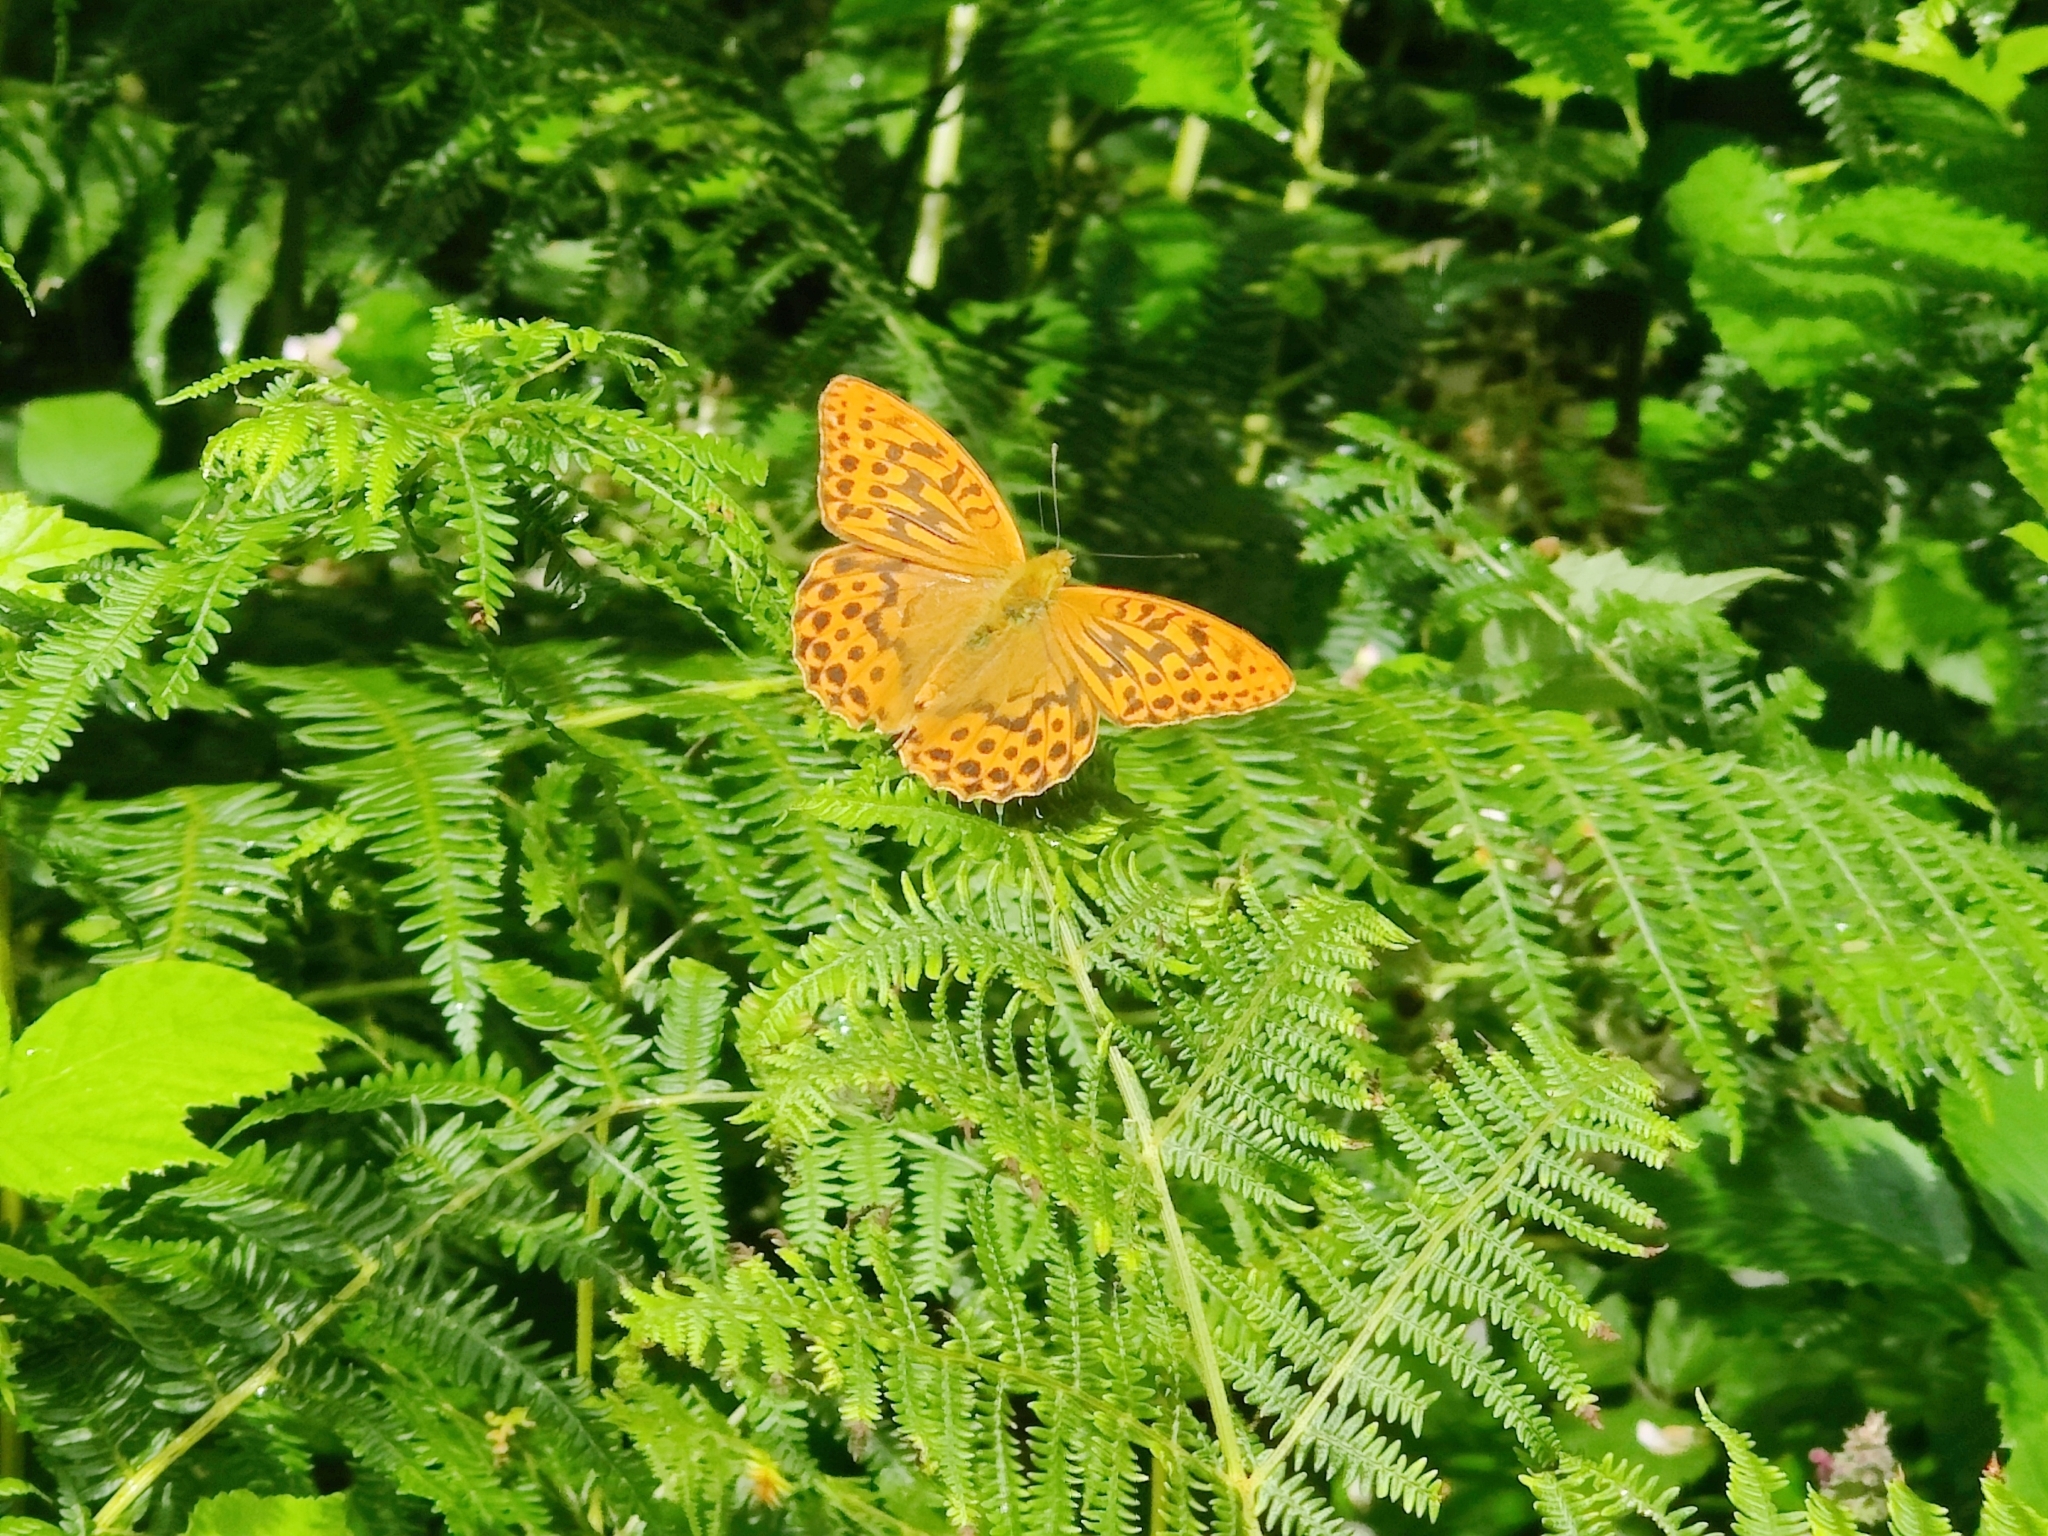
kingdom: Animalia
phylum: Arthropoda
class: Insecta
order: Lepidoptera
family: Nymphalidae
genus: Argynnis
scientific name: Argynnis paphia
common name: Silver-washed fritillary
